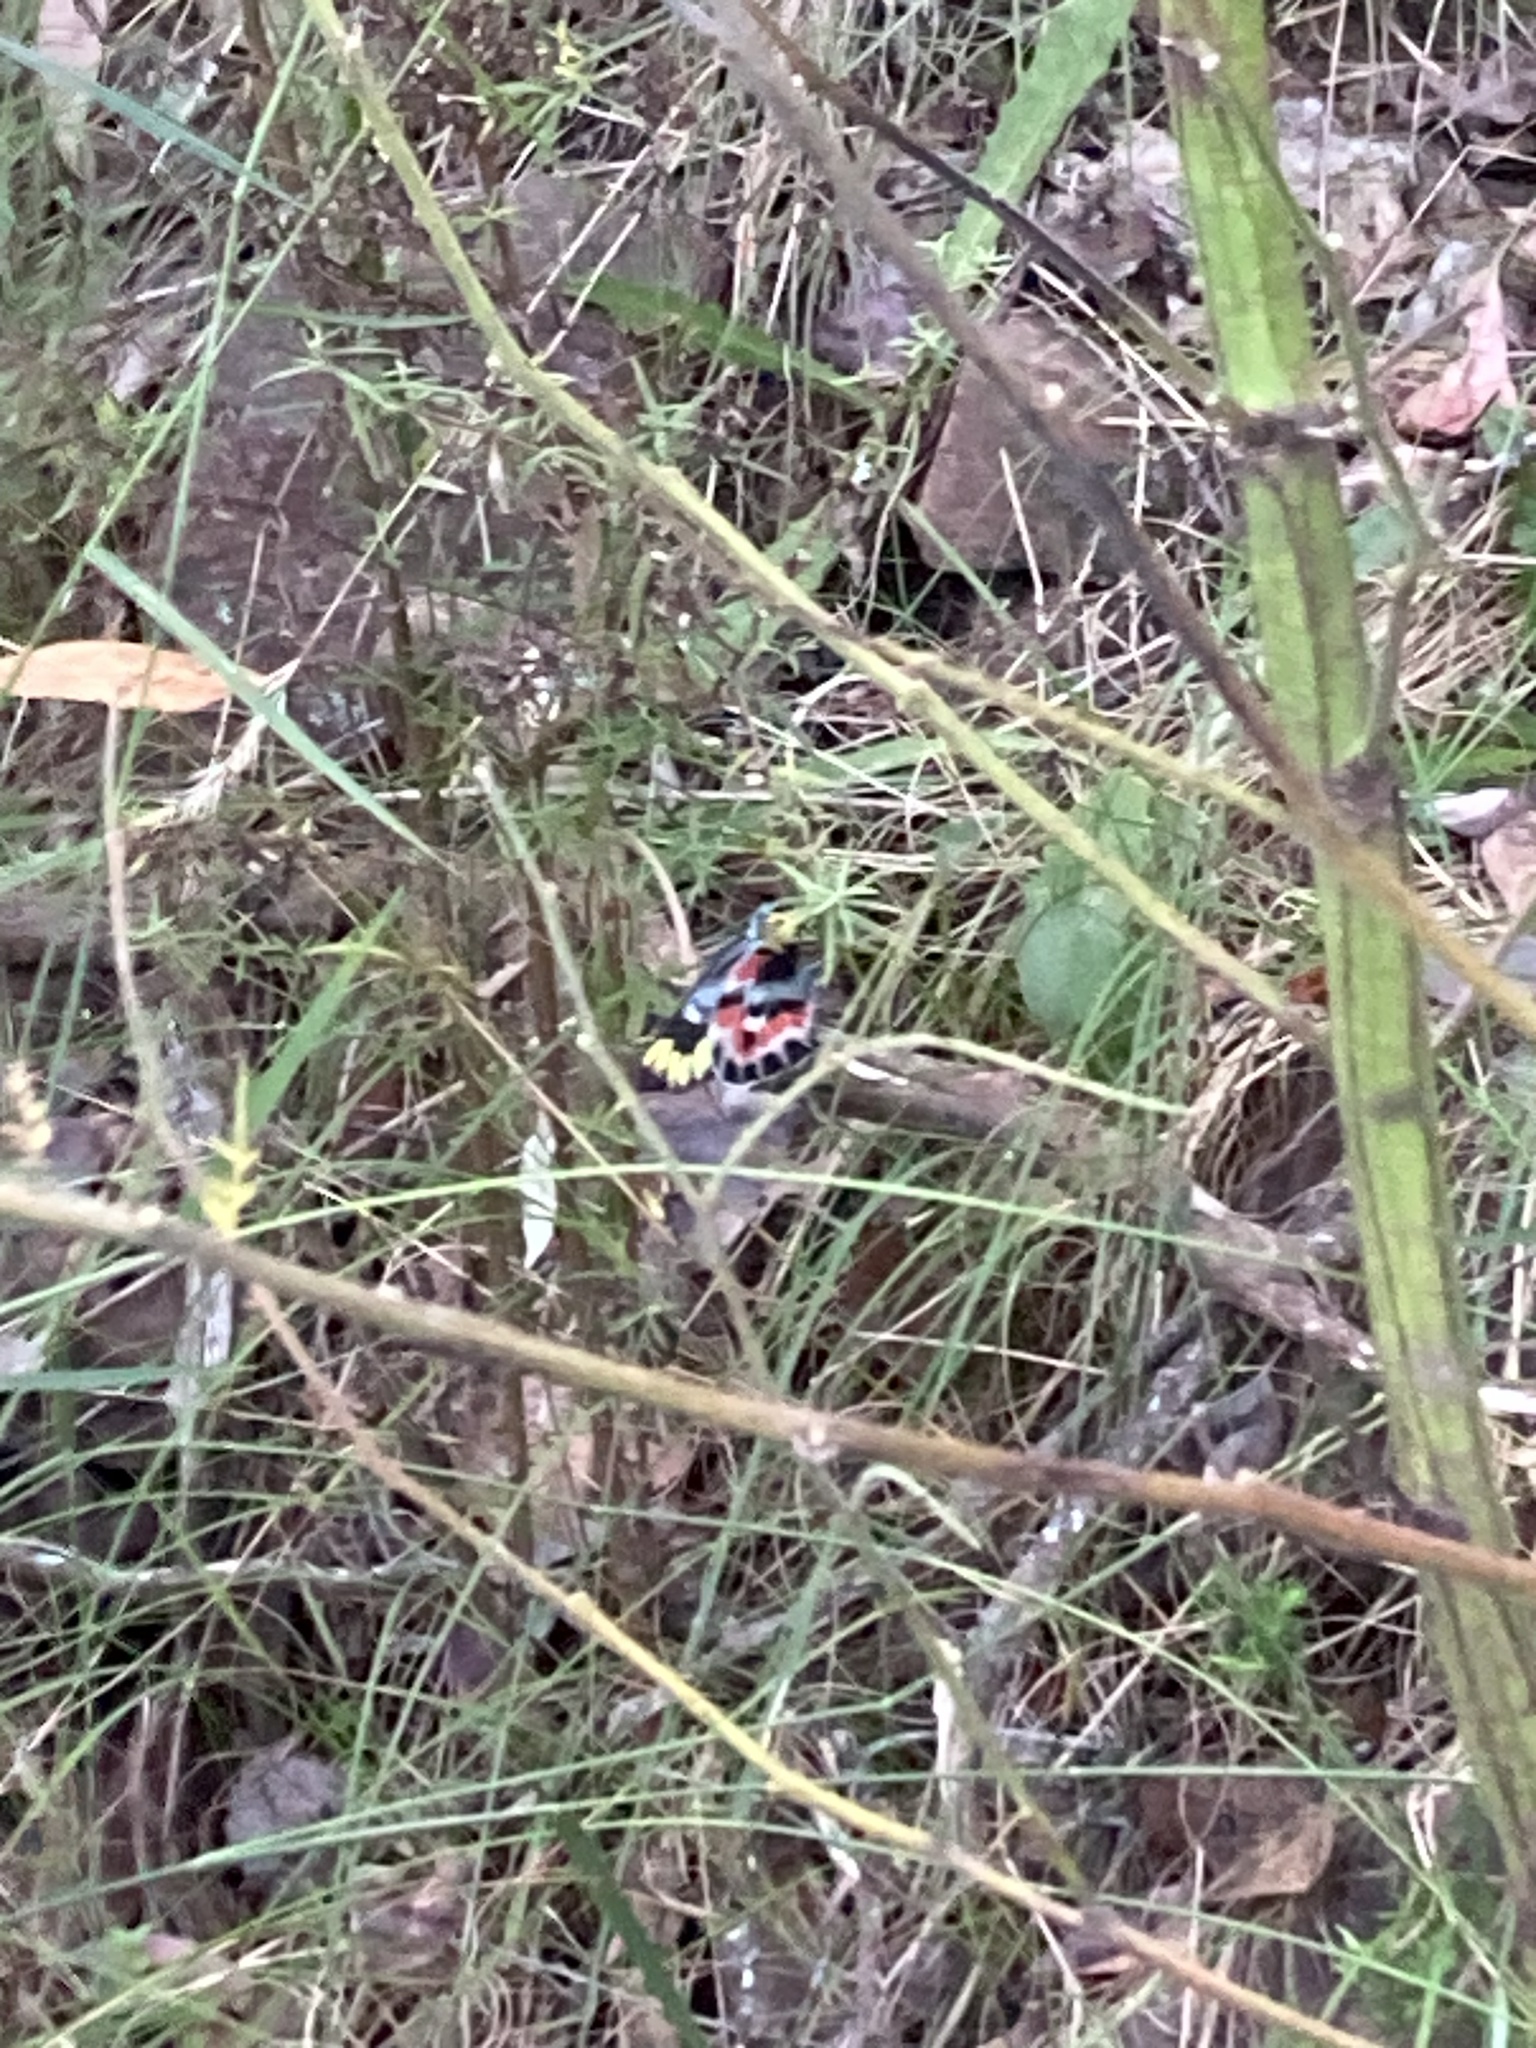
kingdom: Animalia
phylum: Arthropoda
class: Insecta
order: Lepidoptera
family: Pieridae
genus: Delias
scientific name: Delias harpalyce
